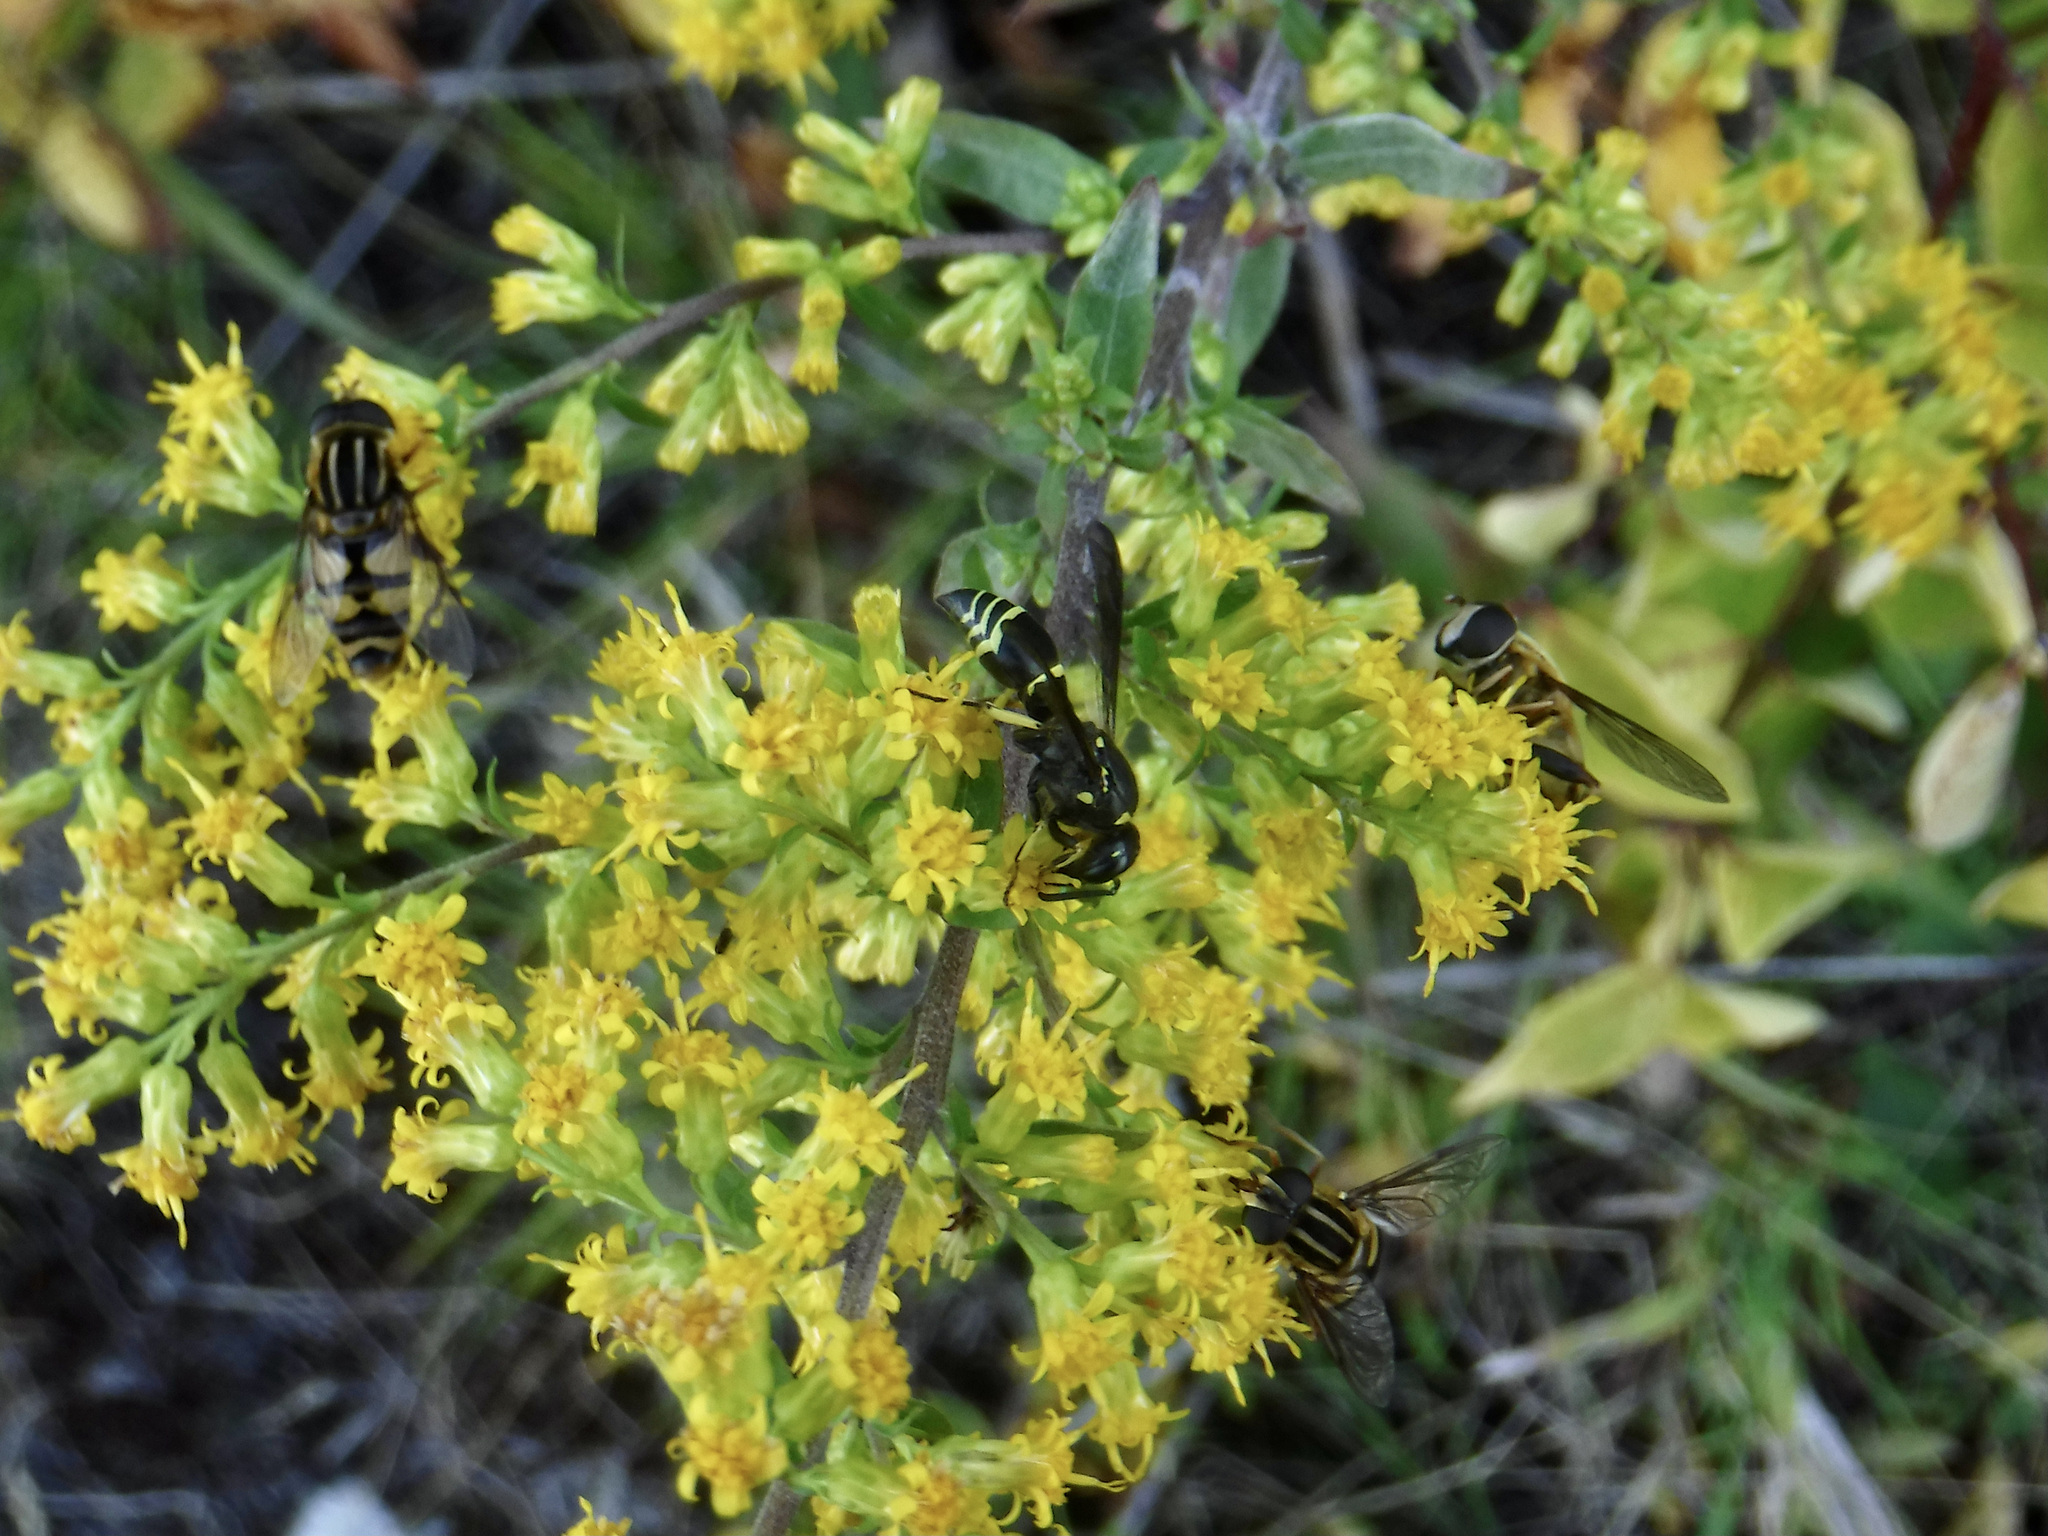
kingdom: Animalia
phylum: Arthropoda
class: Insecta
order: Hymenoptera
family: Vespidae
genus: Ancistrocerus
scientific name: Ancistrocerus
